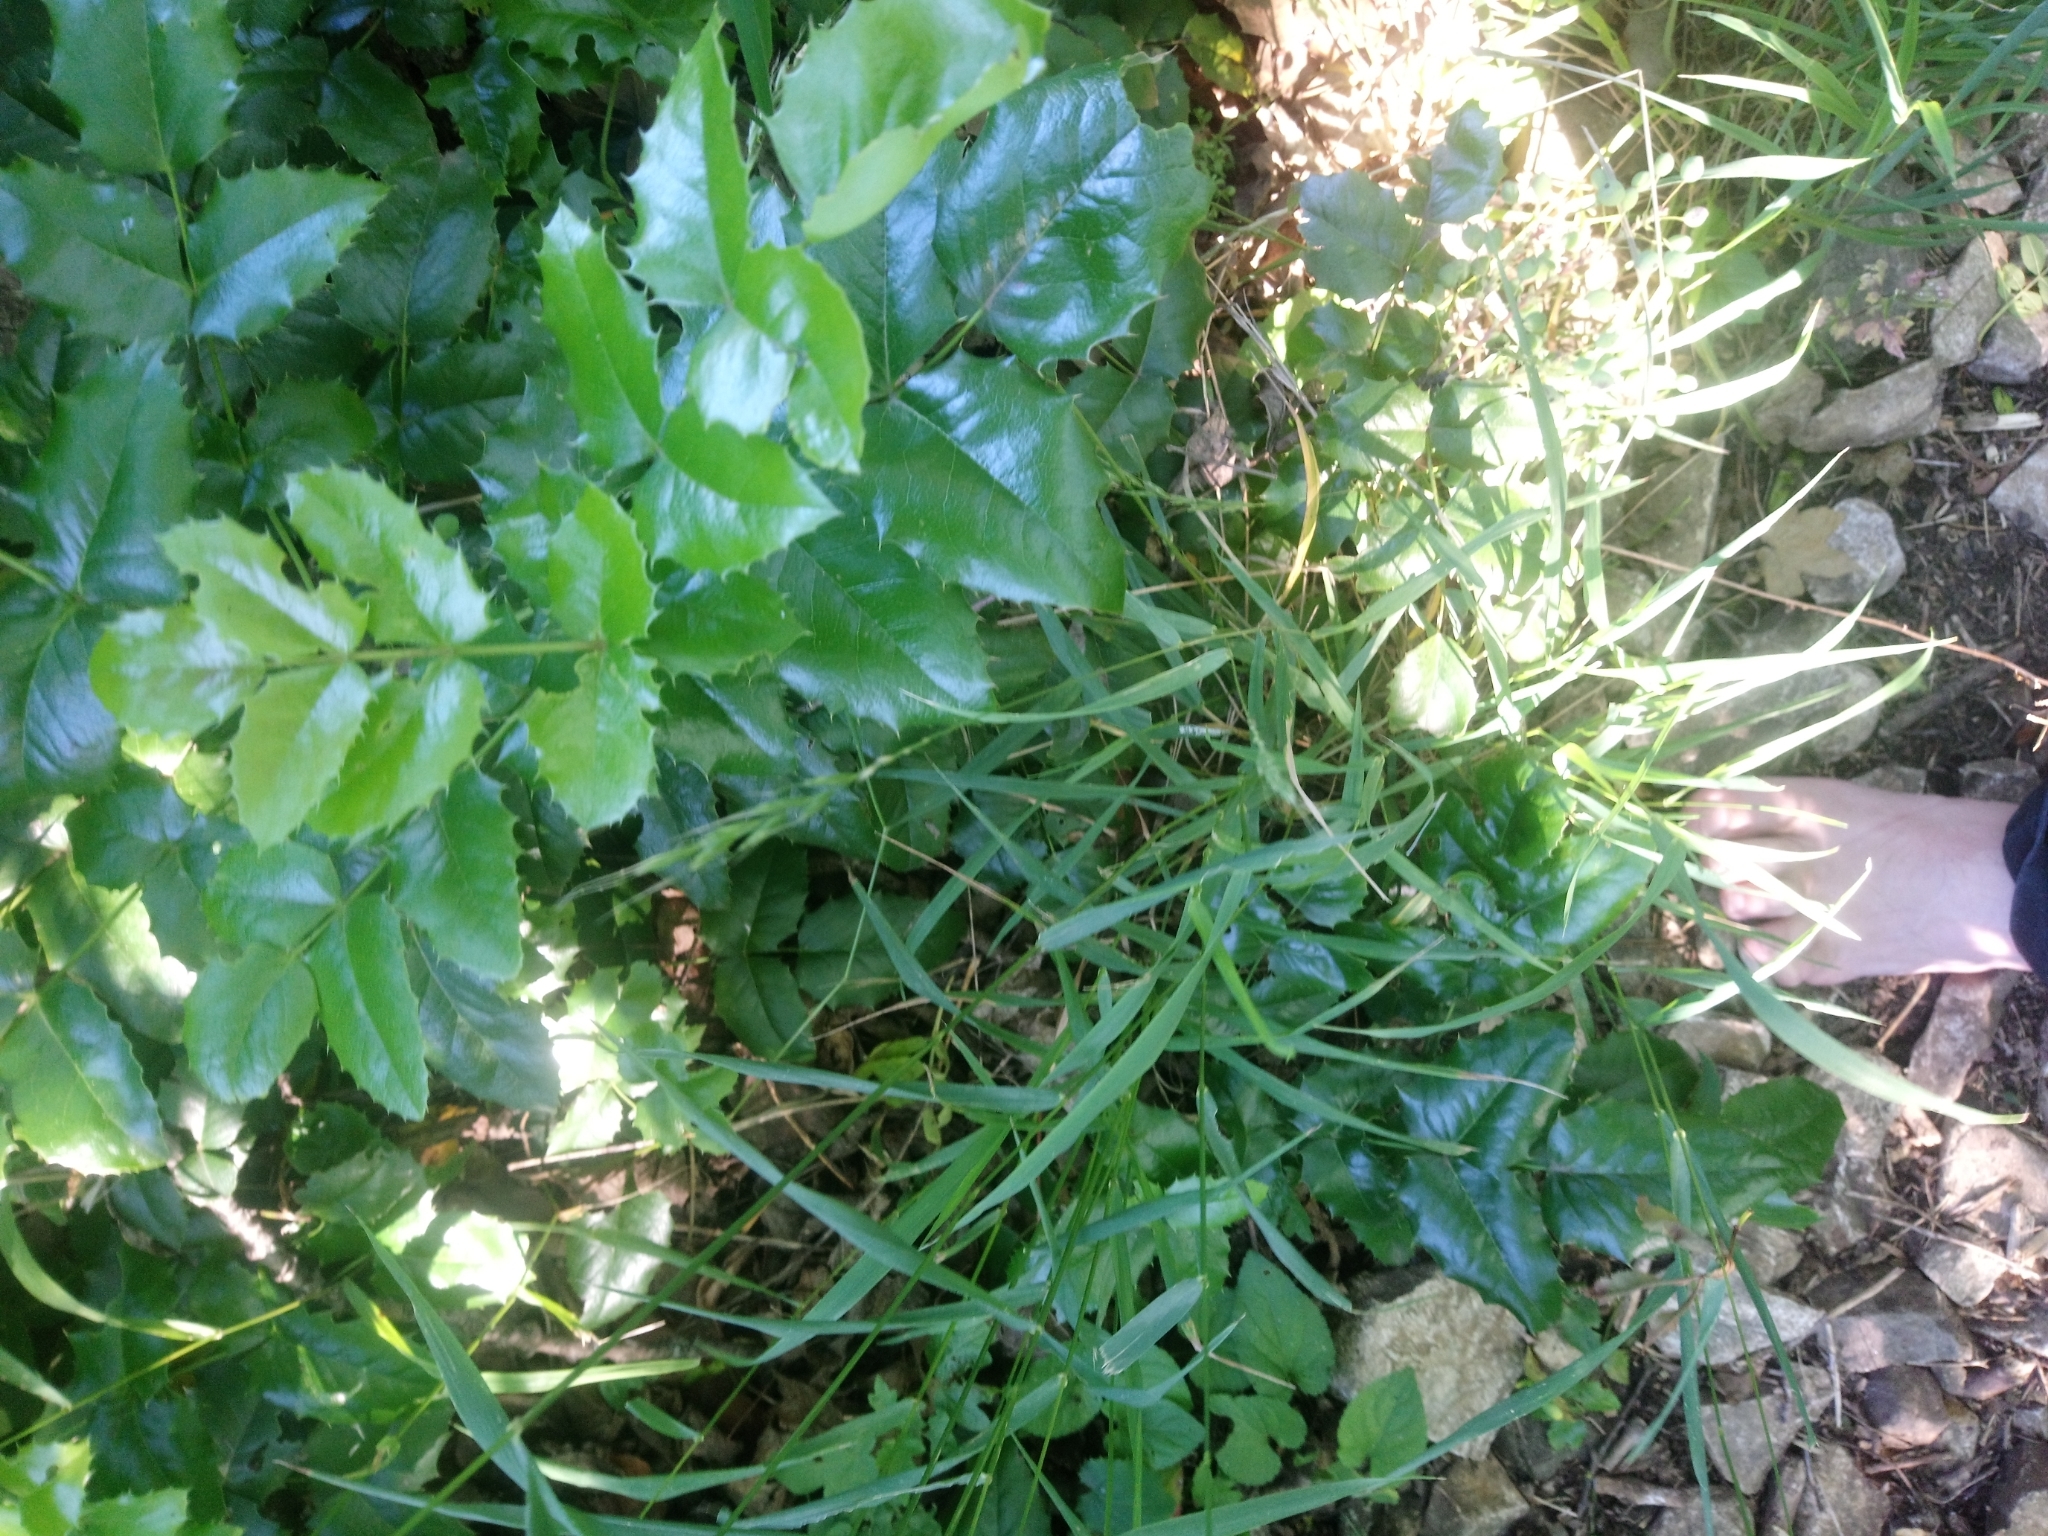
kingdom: Plantae
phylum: Tracheophyta
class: Magnoliopsida
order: Ranunculales
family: Berberidaceae
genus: Mahonia
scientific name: Mahonia aquifolium
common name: Oregon-grape
